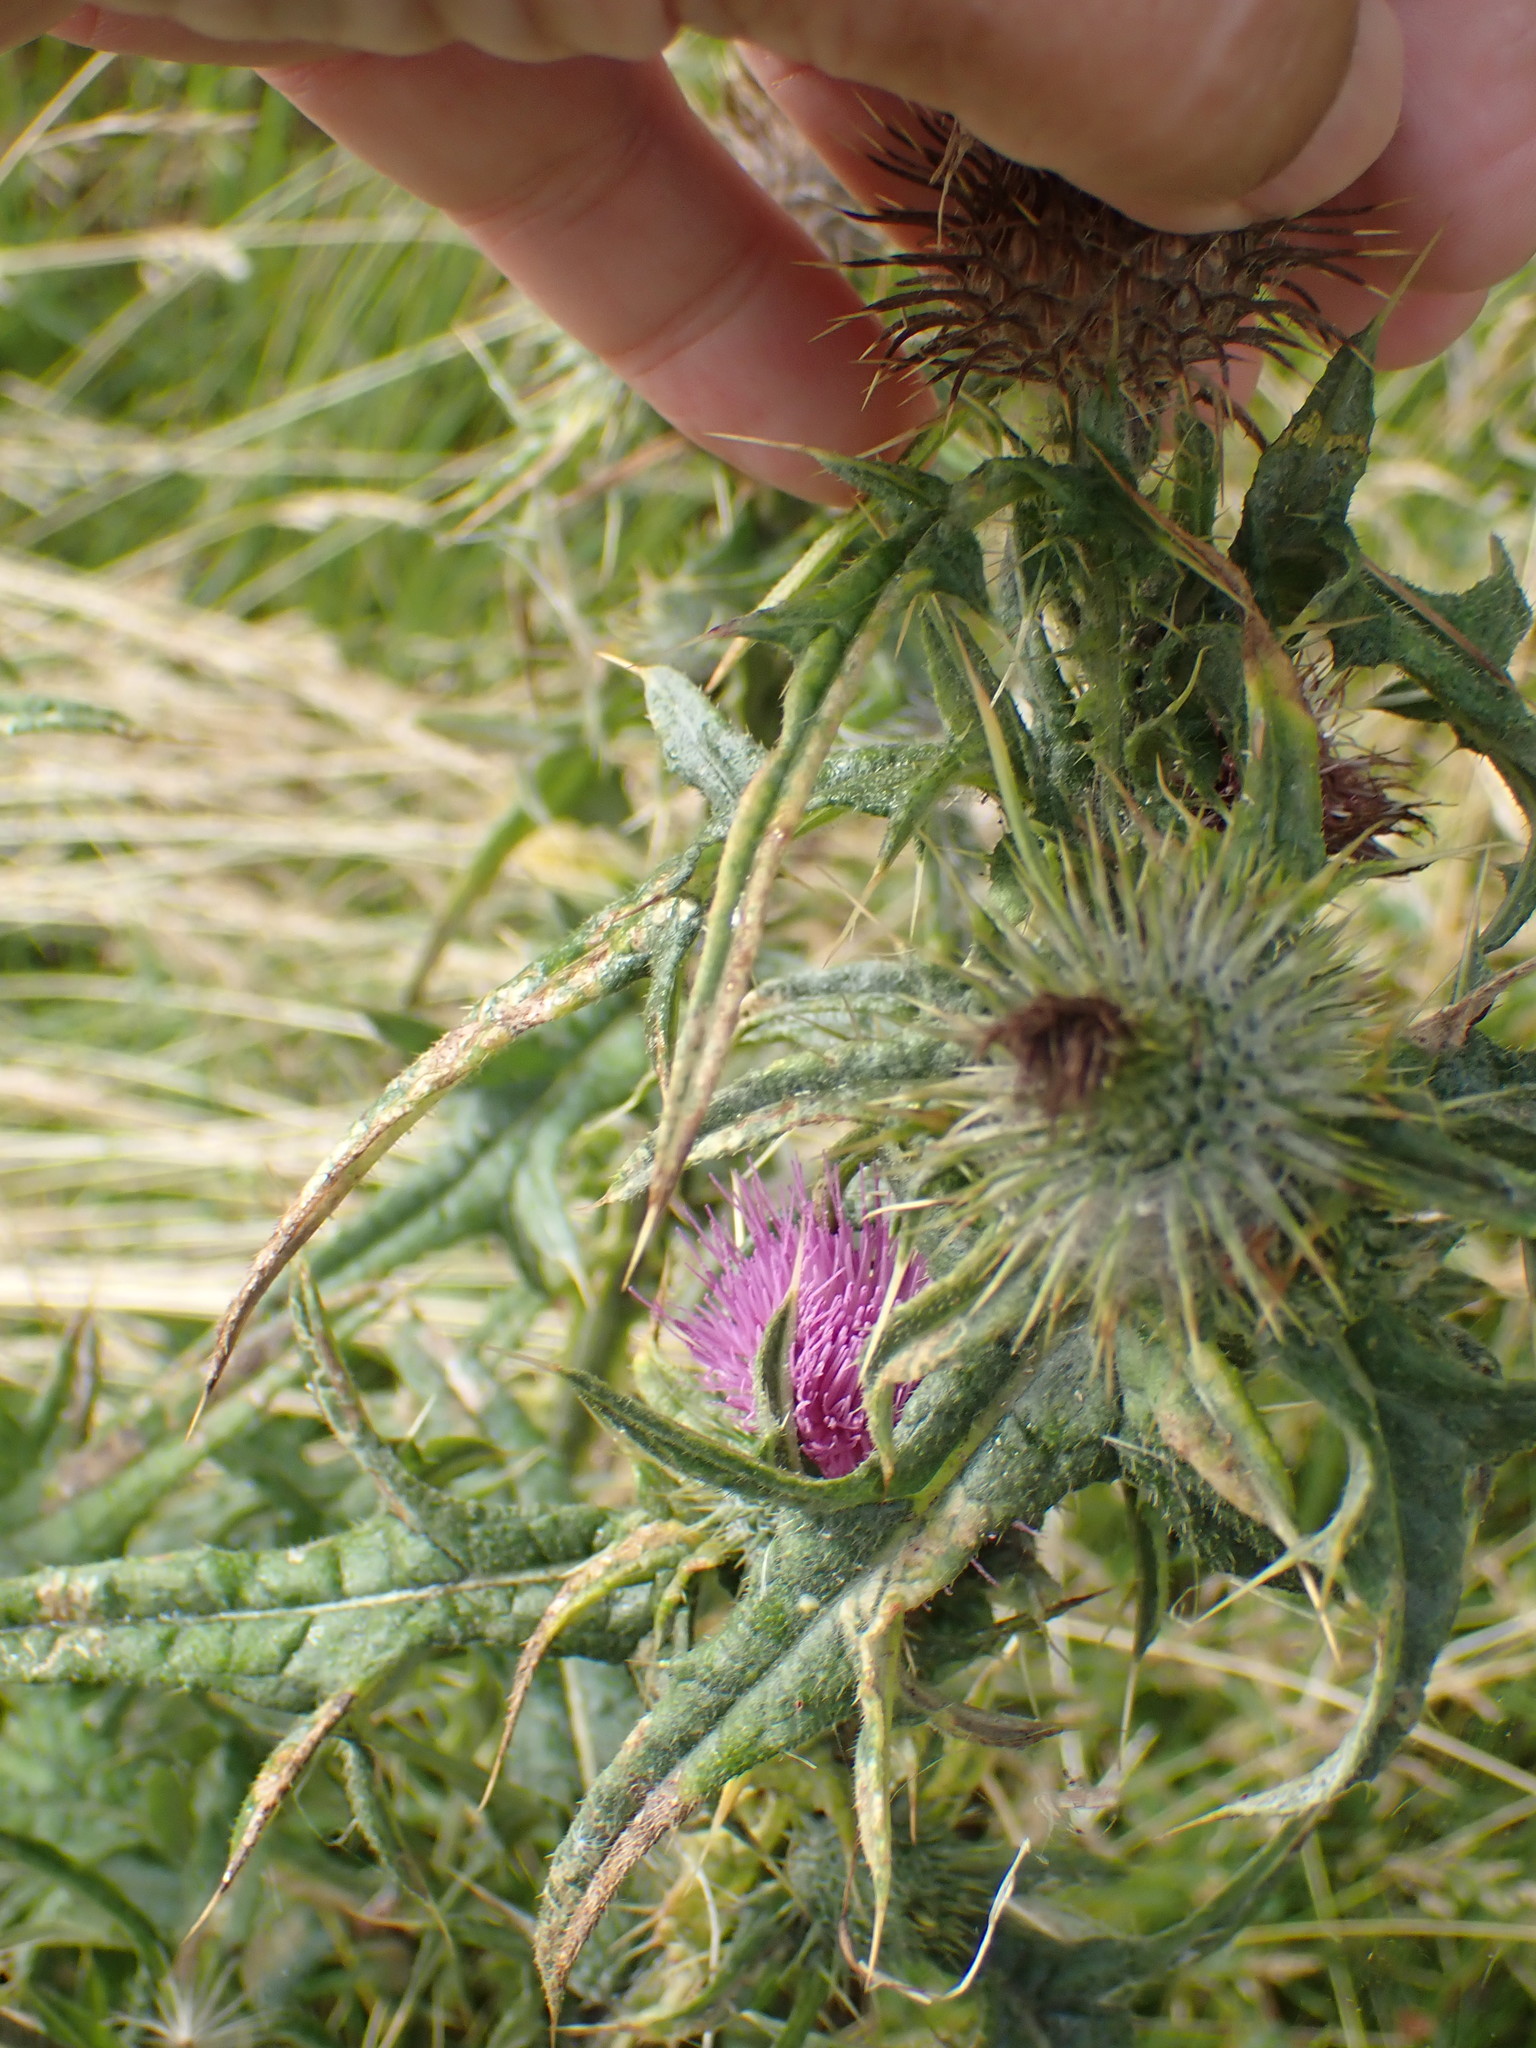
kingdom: Plantae
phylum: Tracheophyta
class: Magnoliopsida
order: Asterales
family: Asteraceae
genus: Cirsium
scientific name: Cirsium vulgare
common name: Bull thistle
